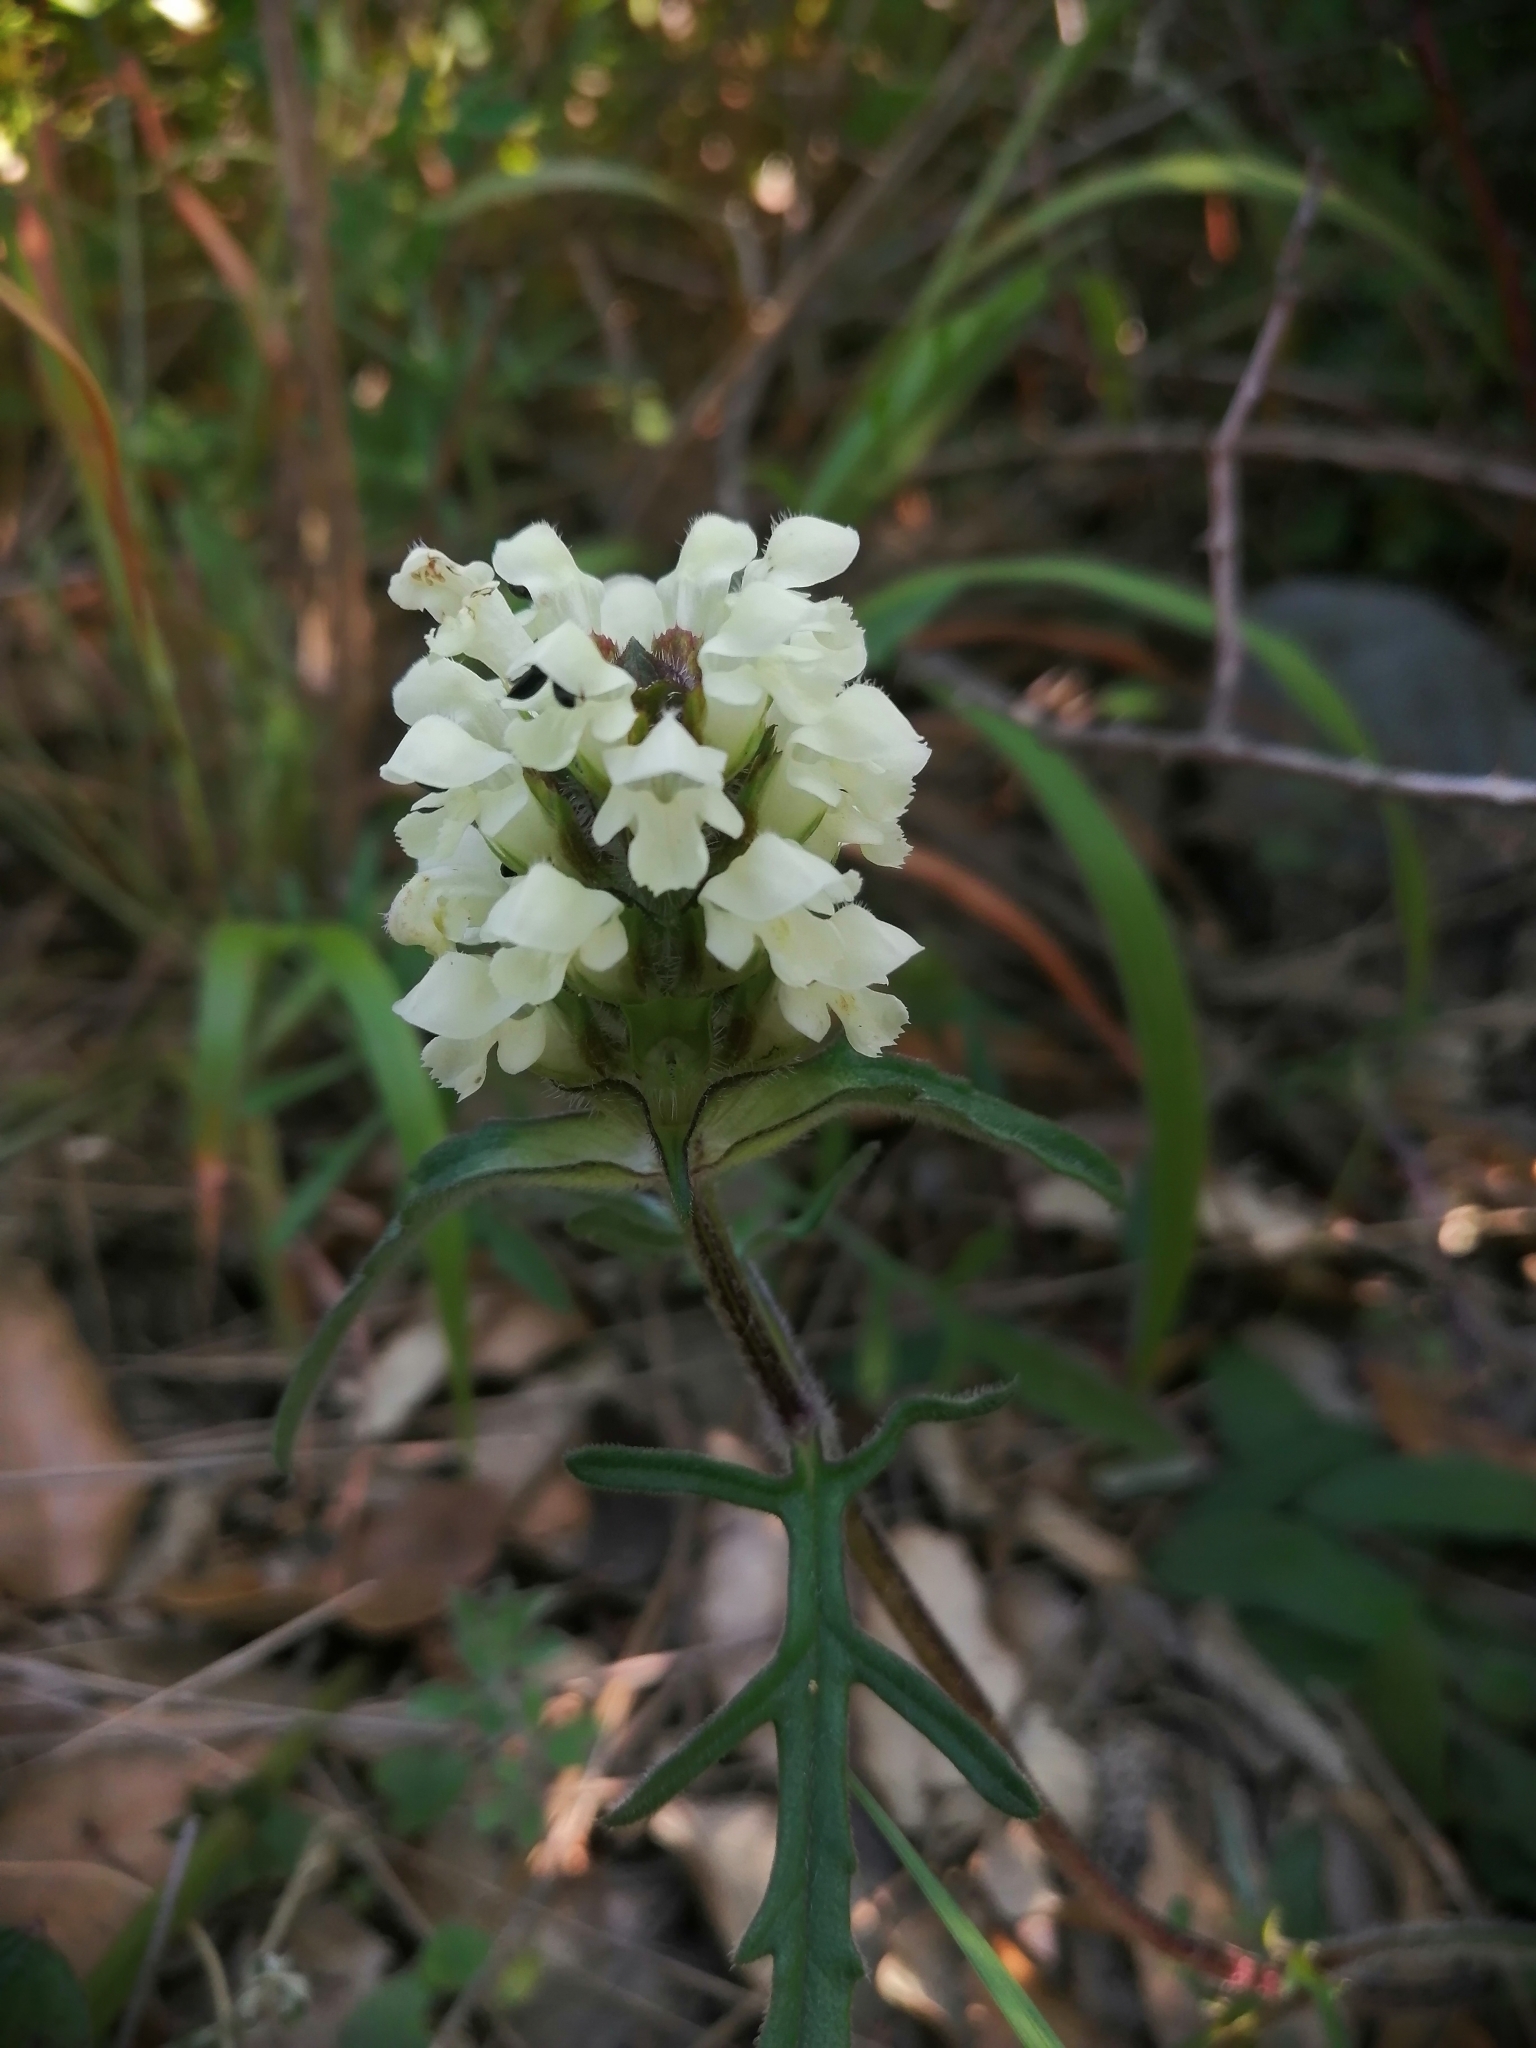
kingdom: Plantae
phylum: Tracheophyta
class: Magnoliopsida
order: Lamiales
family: Lamiaceae
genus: Prunella
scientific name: Prunella laciniata
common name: Cut-leaved selfheal
